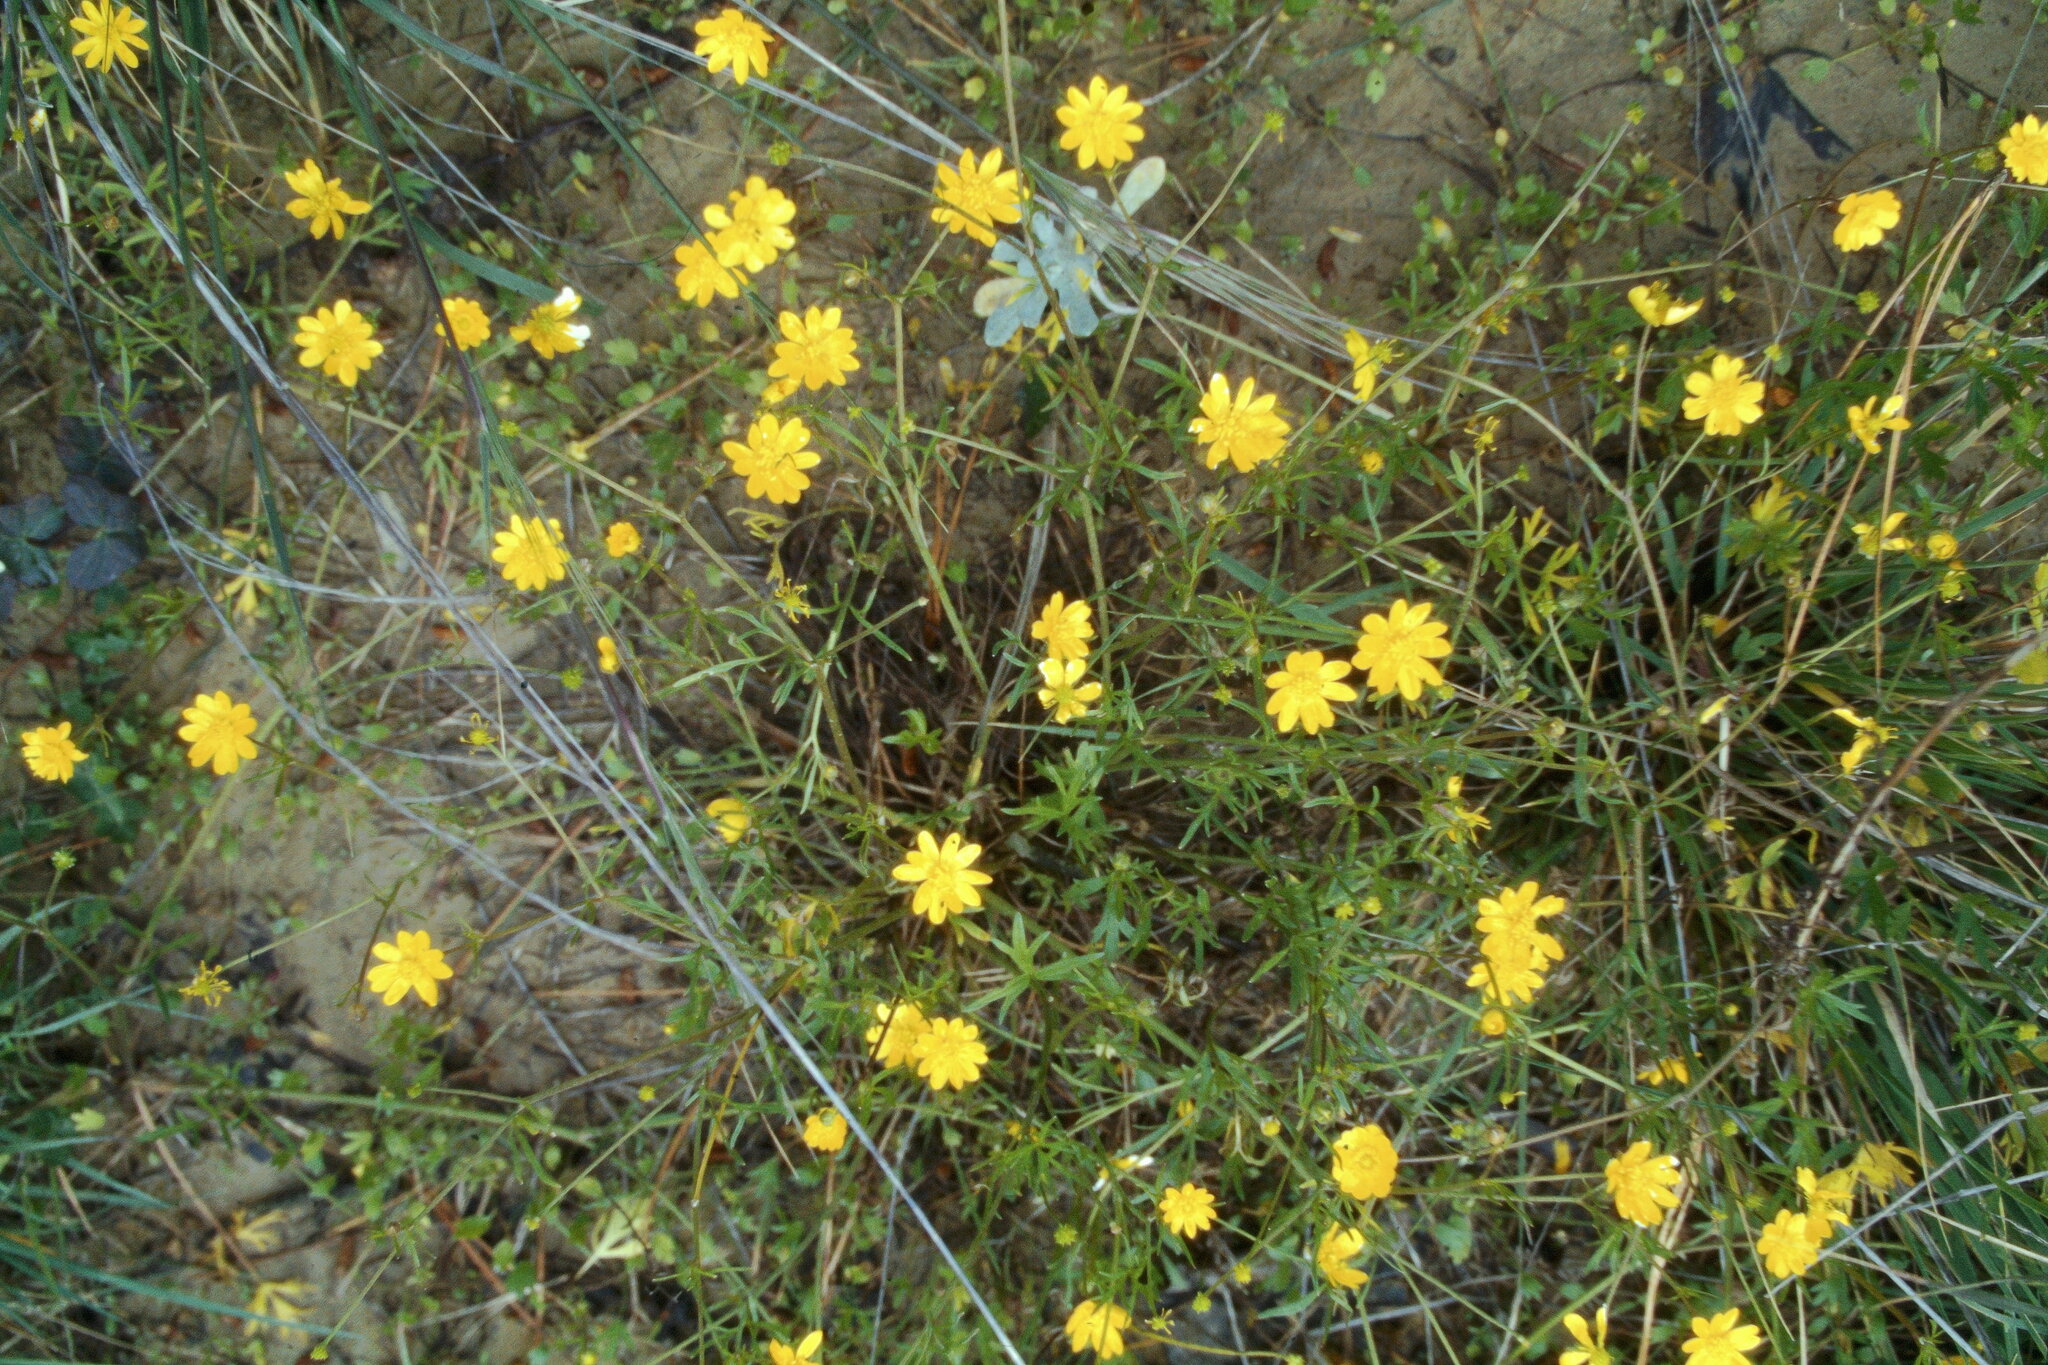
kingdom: Plantae
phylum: Tracheophyta
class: Magnoliopsida
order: Ranunculales
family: Ranunculaceae
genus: Ranunculus
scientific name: Ranunculus californicus
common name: California buttercup
